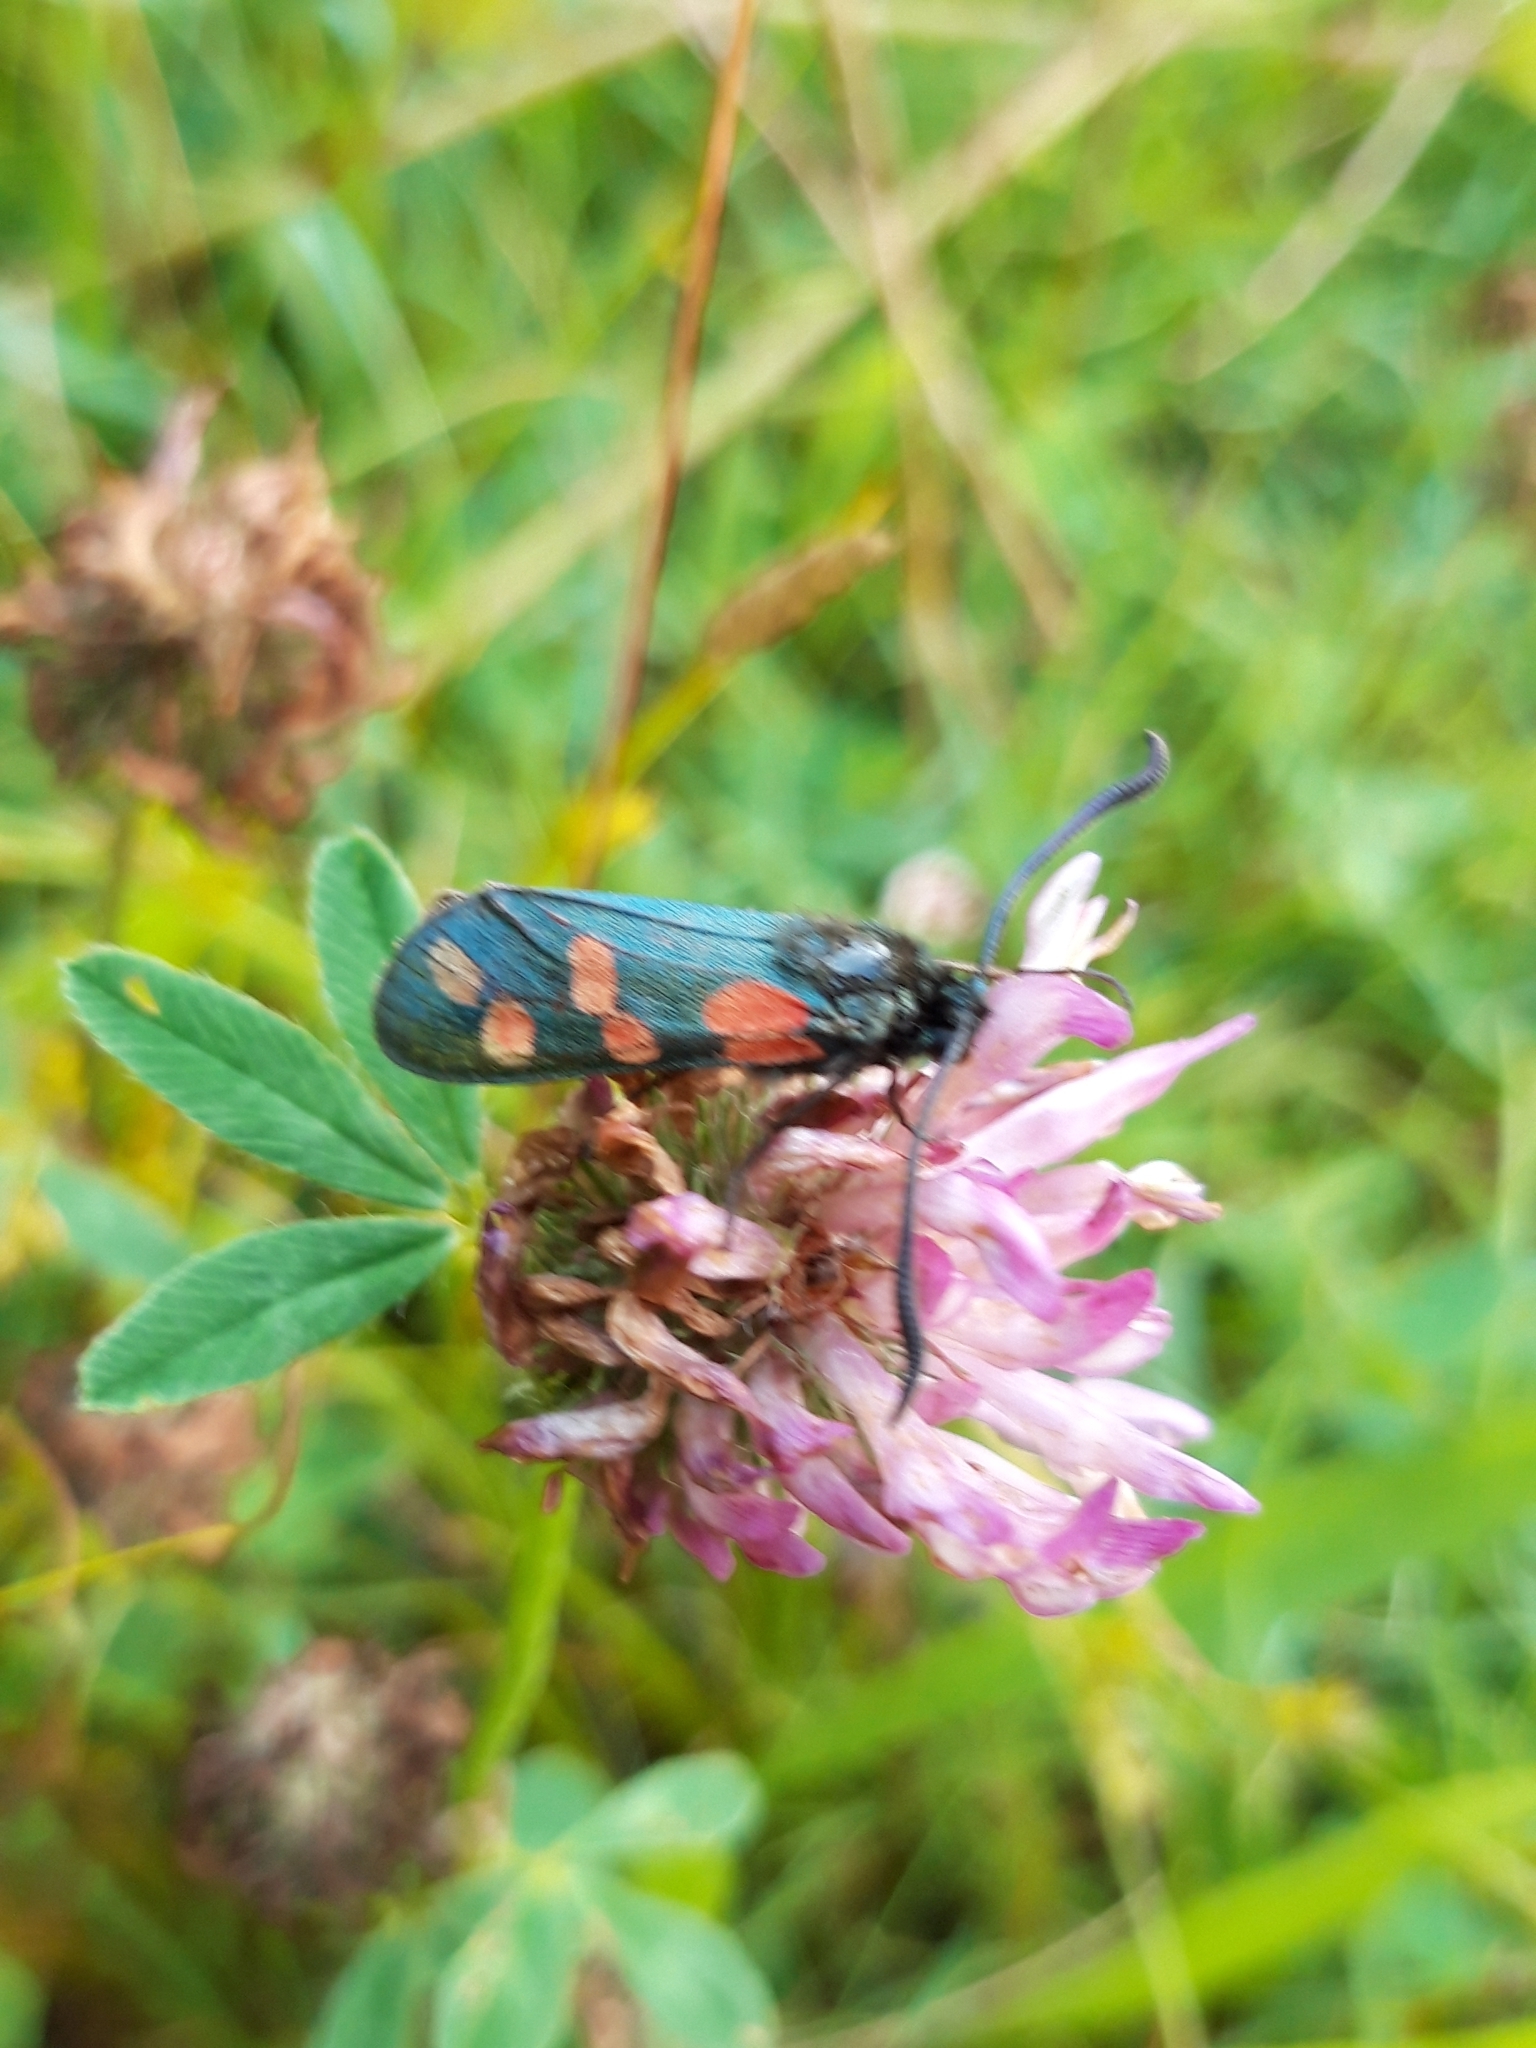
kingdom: Animalia
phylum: Arthropoda
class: Insecta
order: Lepidoptera
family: Zygaenidae
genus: Zygaena
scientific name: Zygaena filipendulae
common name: Six-spot burnet
